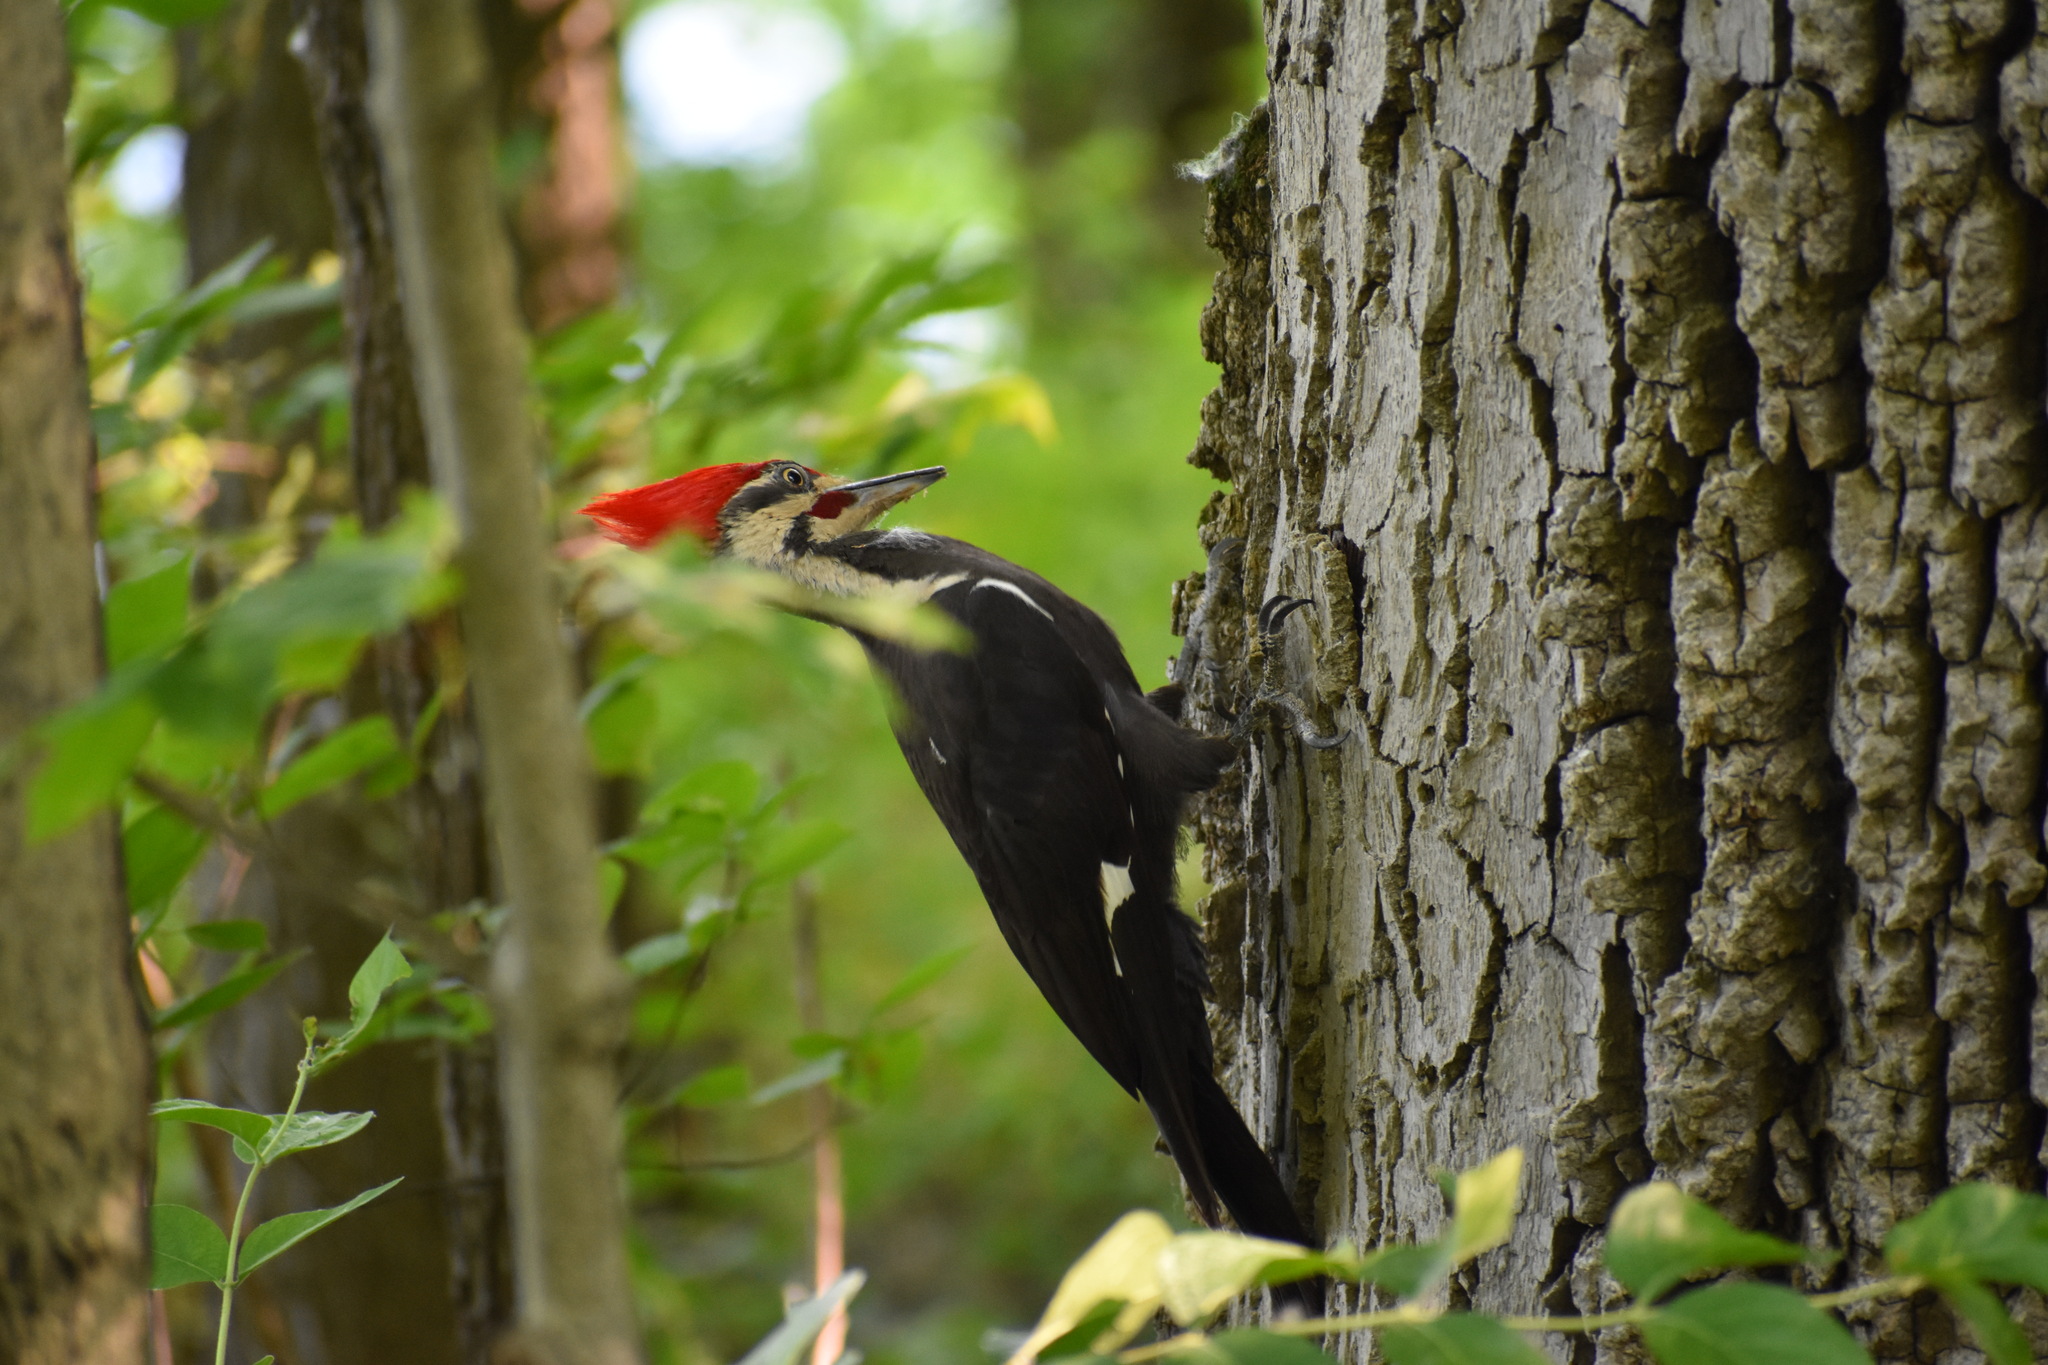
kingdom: Animalia
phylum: Chordata
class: Aves
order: Piciformes
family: Picidae
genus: Dryocopus
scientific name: Dryocopus pileatus
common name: Pileated woodpecker
